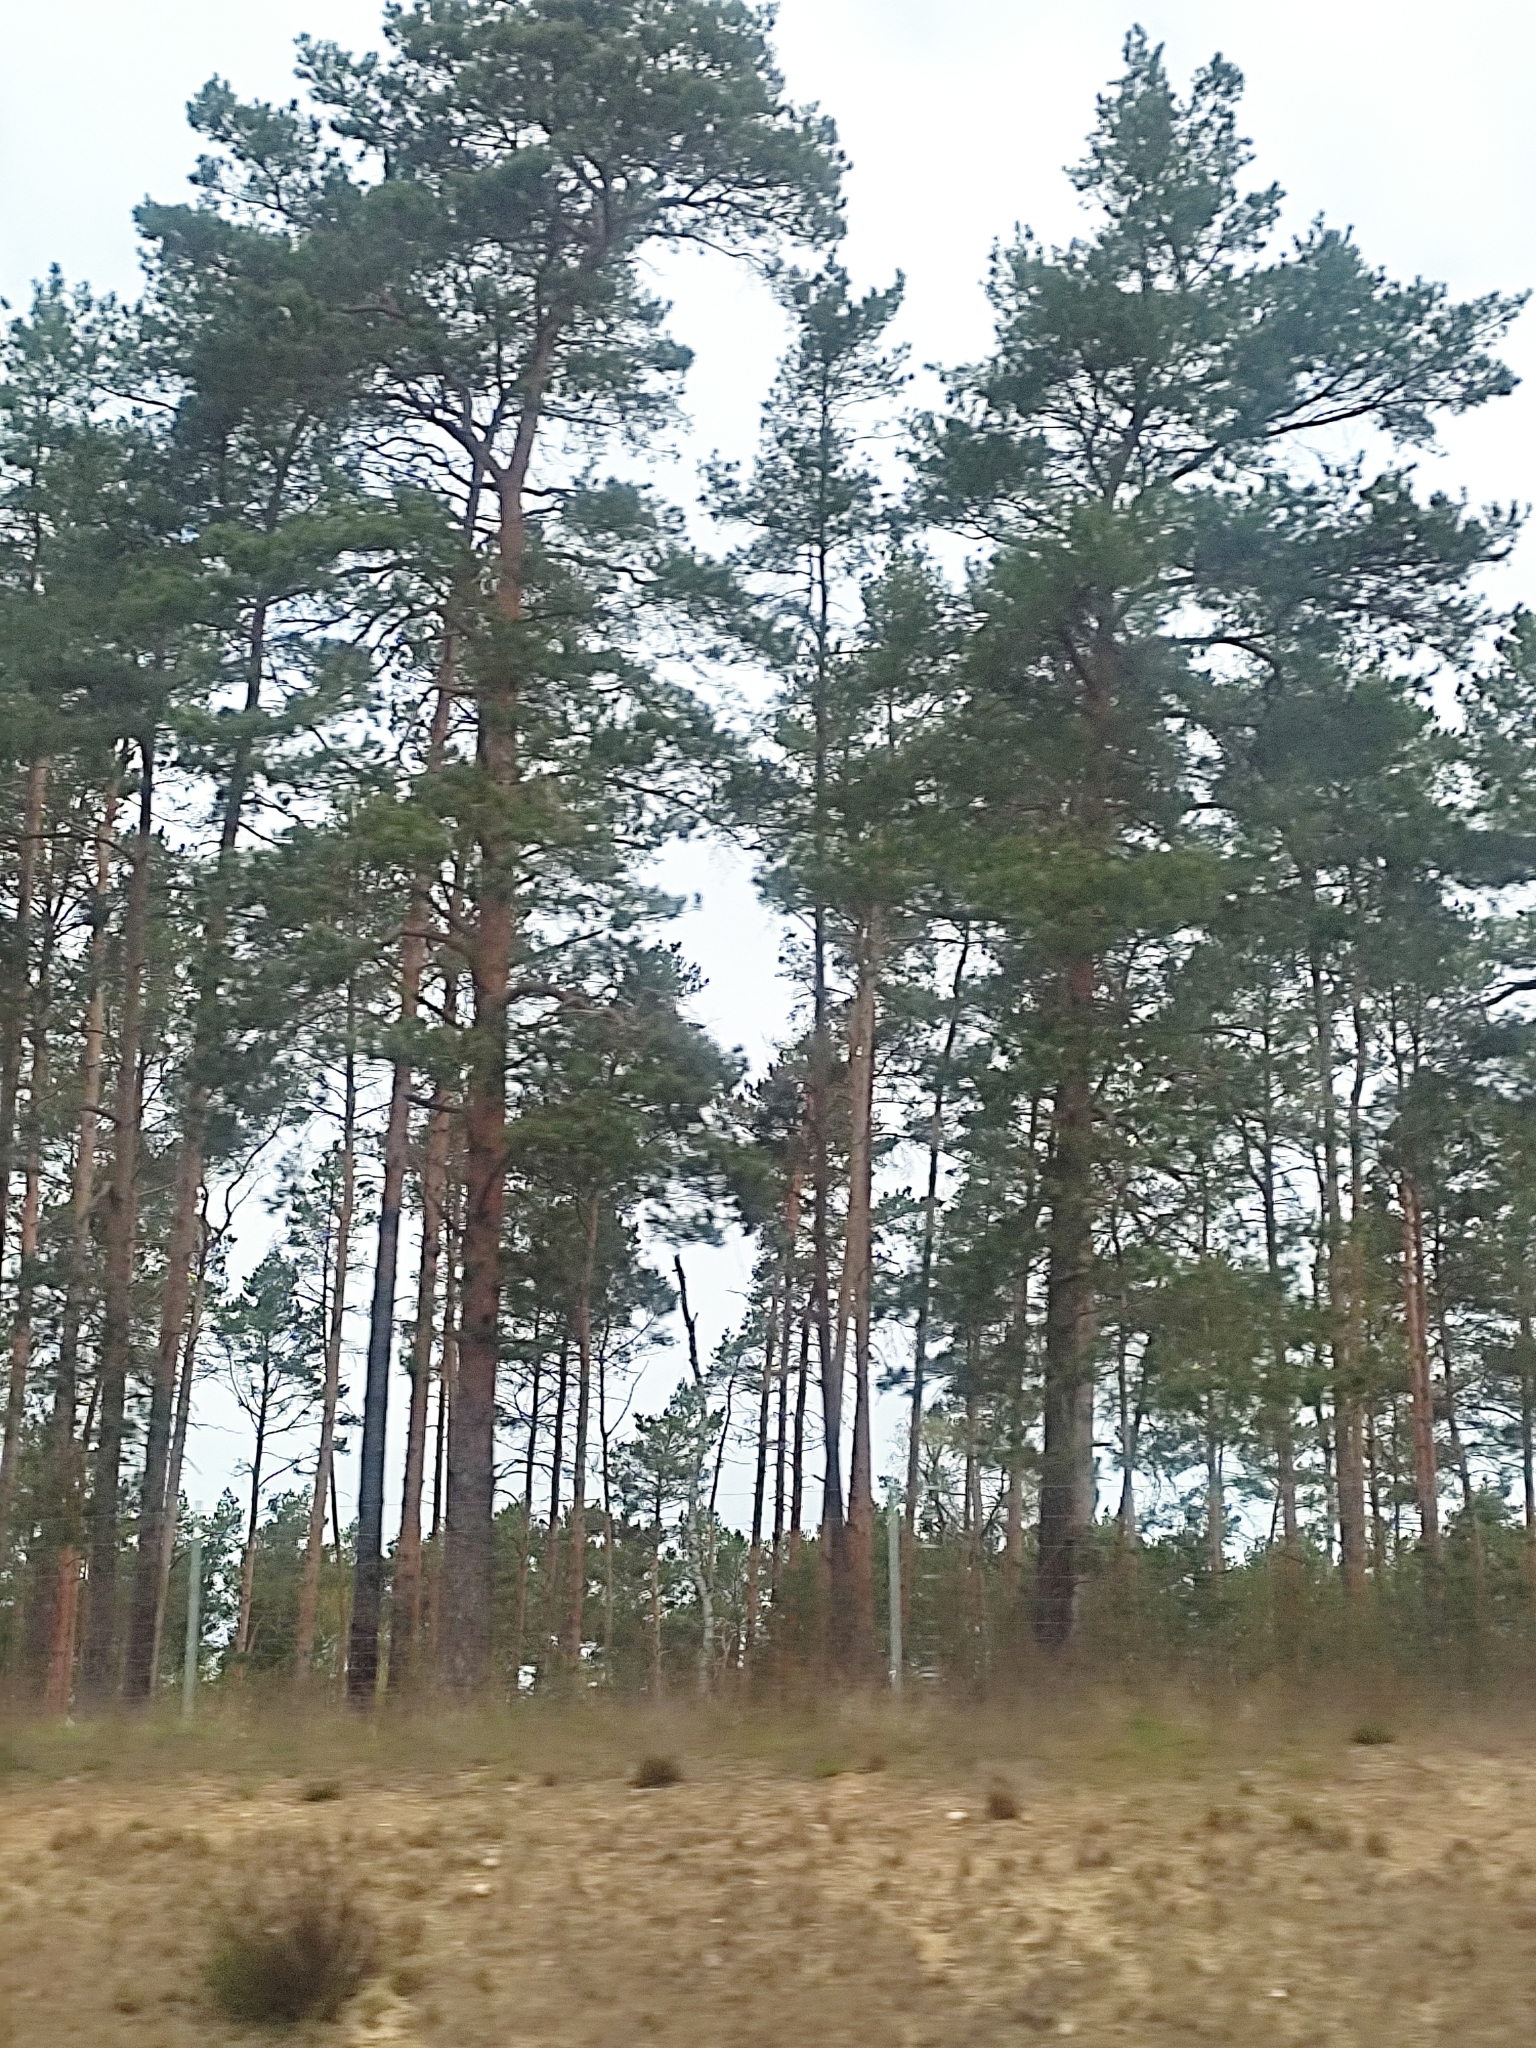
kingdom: Plantae
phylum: Tracheophyta
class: Pinopsida
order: Pinales
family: Pinaceae
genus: Pinus
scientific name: Pinus sylvestris
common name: Scots pine
